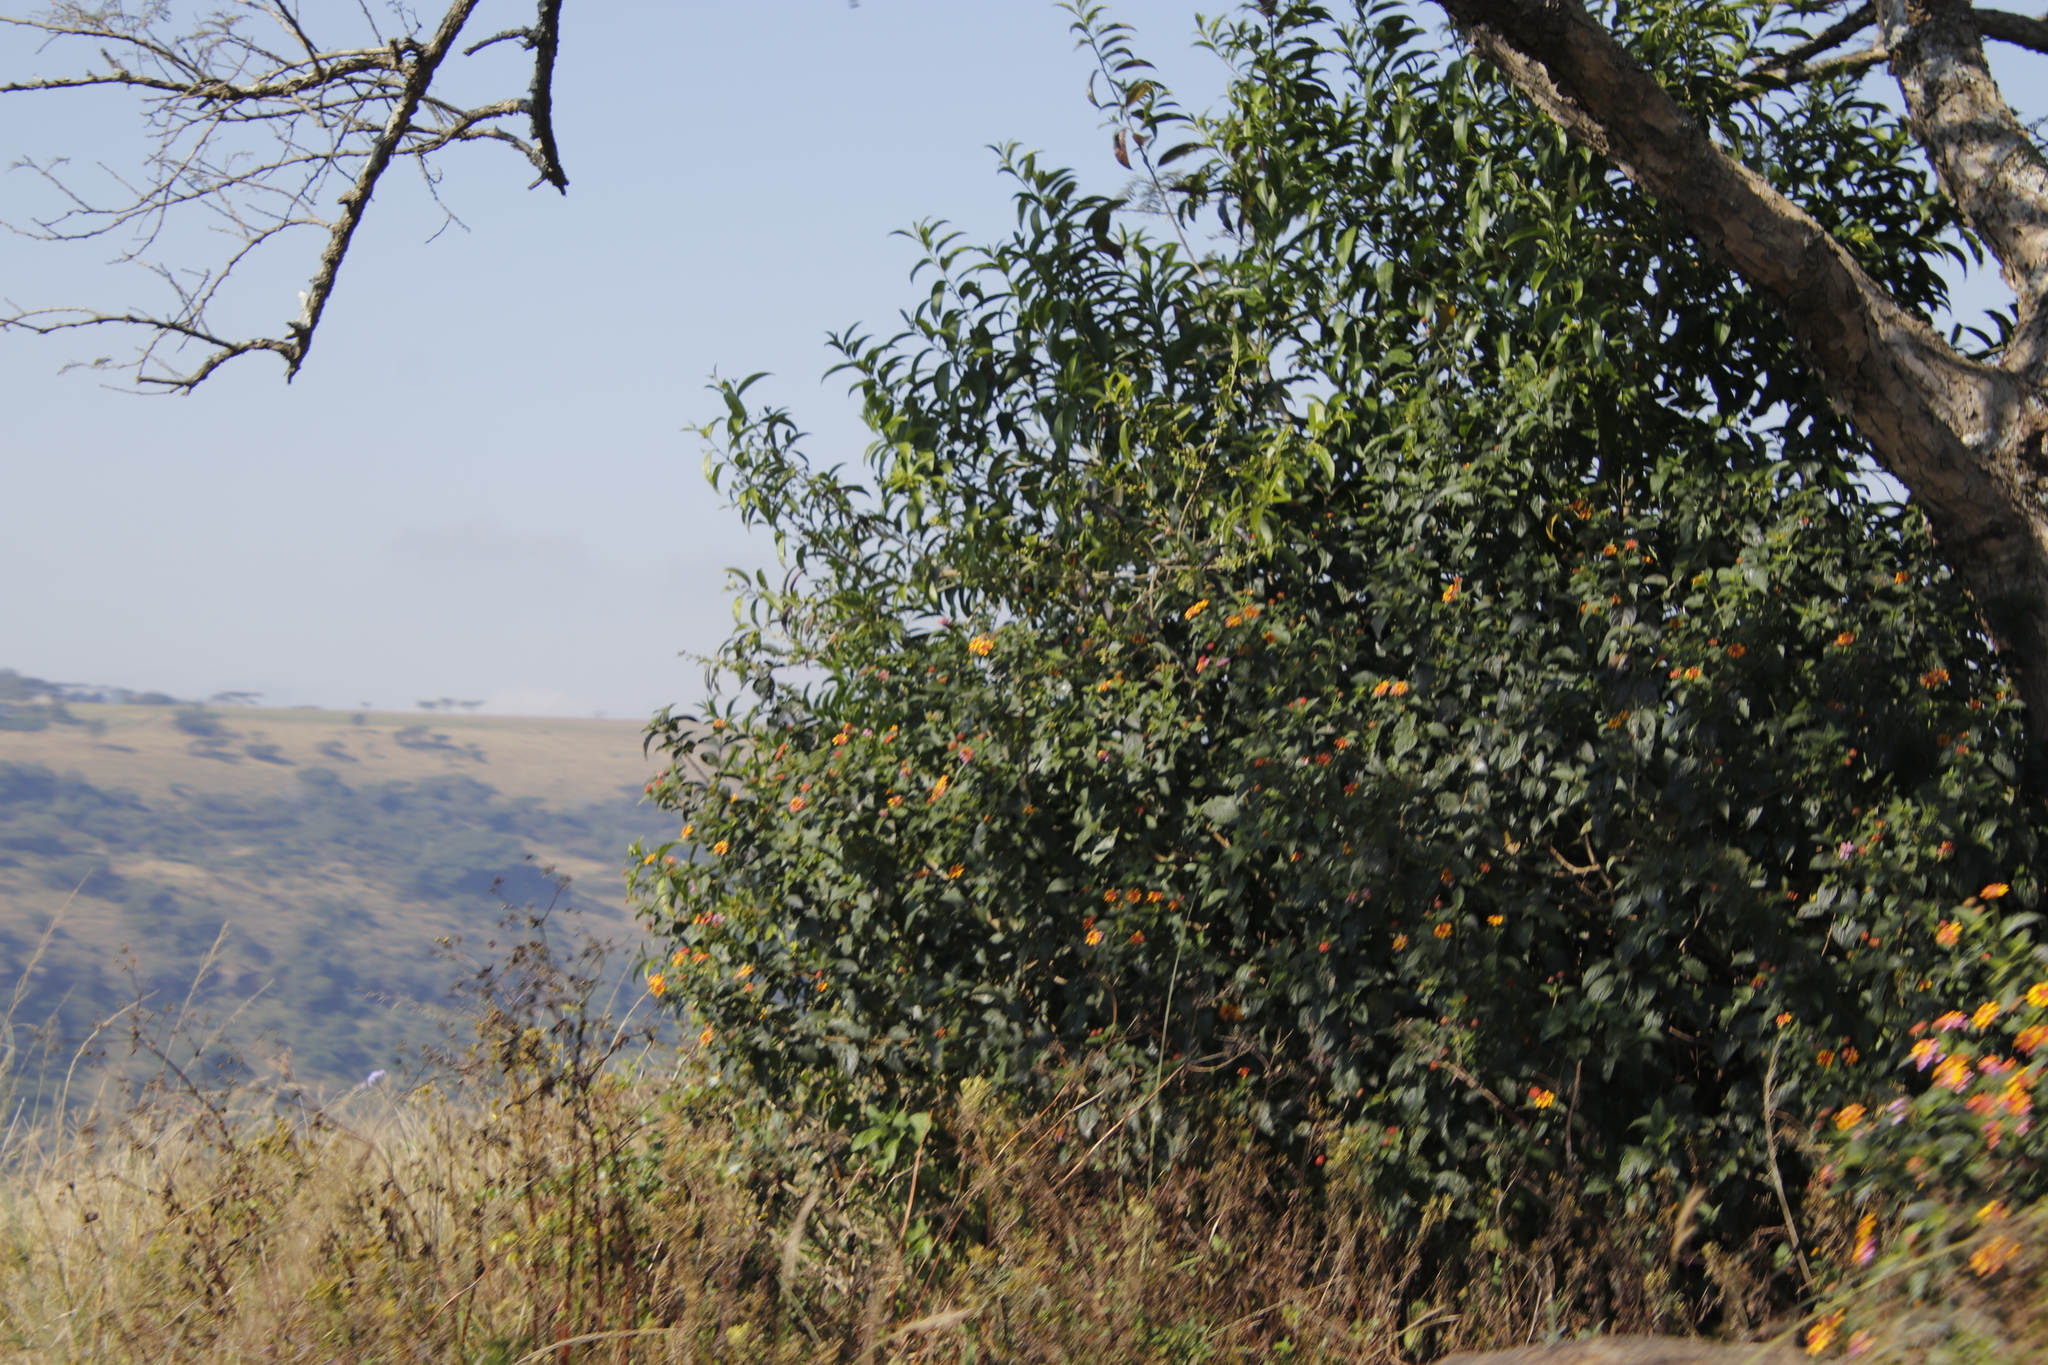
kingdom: Plantae
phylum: Tracheophyta
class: Magnoliopsida
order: Lamiales
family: Verbenaceae
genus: Lantana
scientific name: Lantana camara
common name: Lantana
